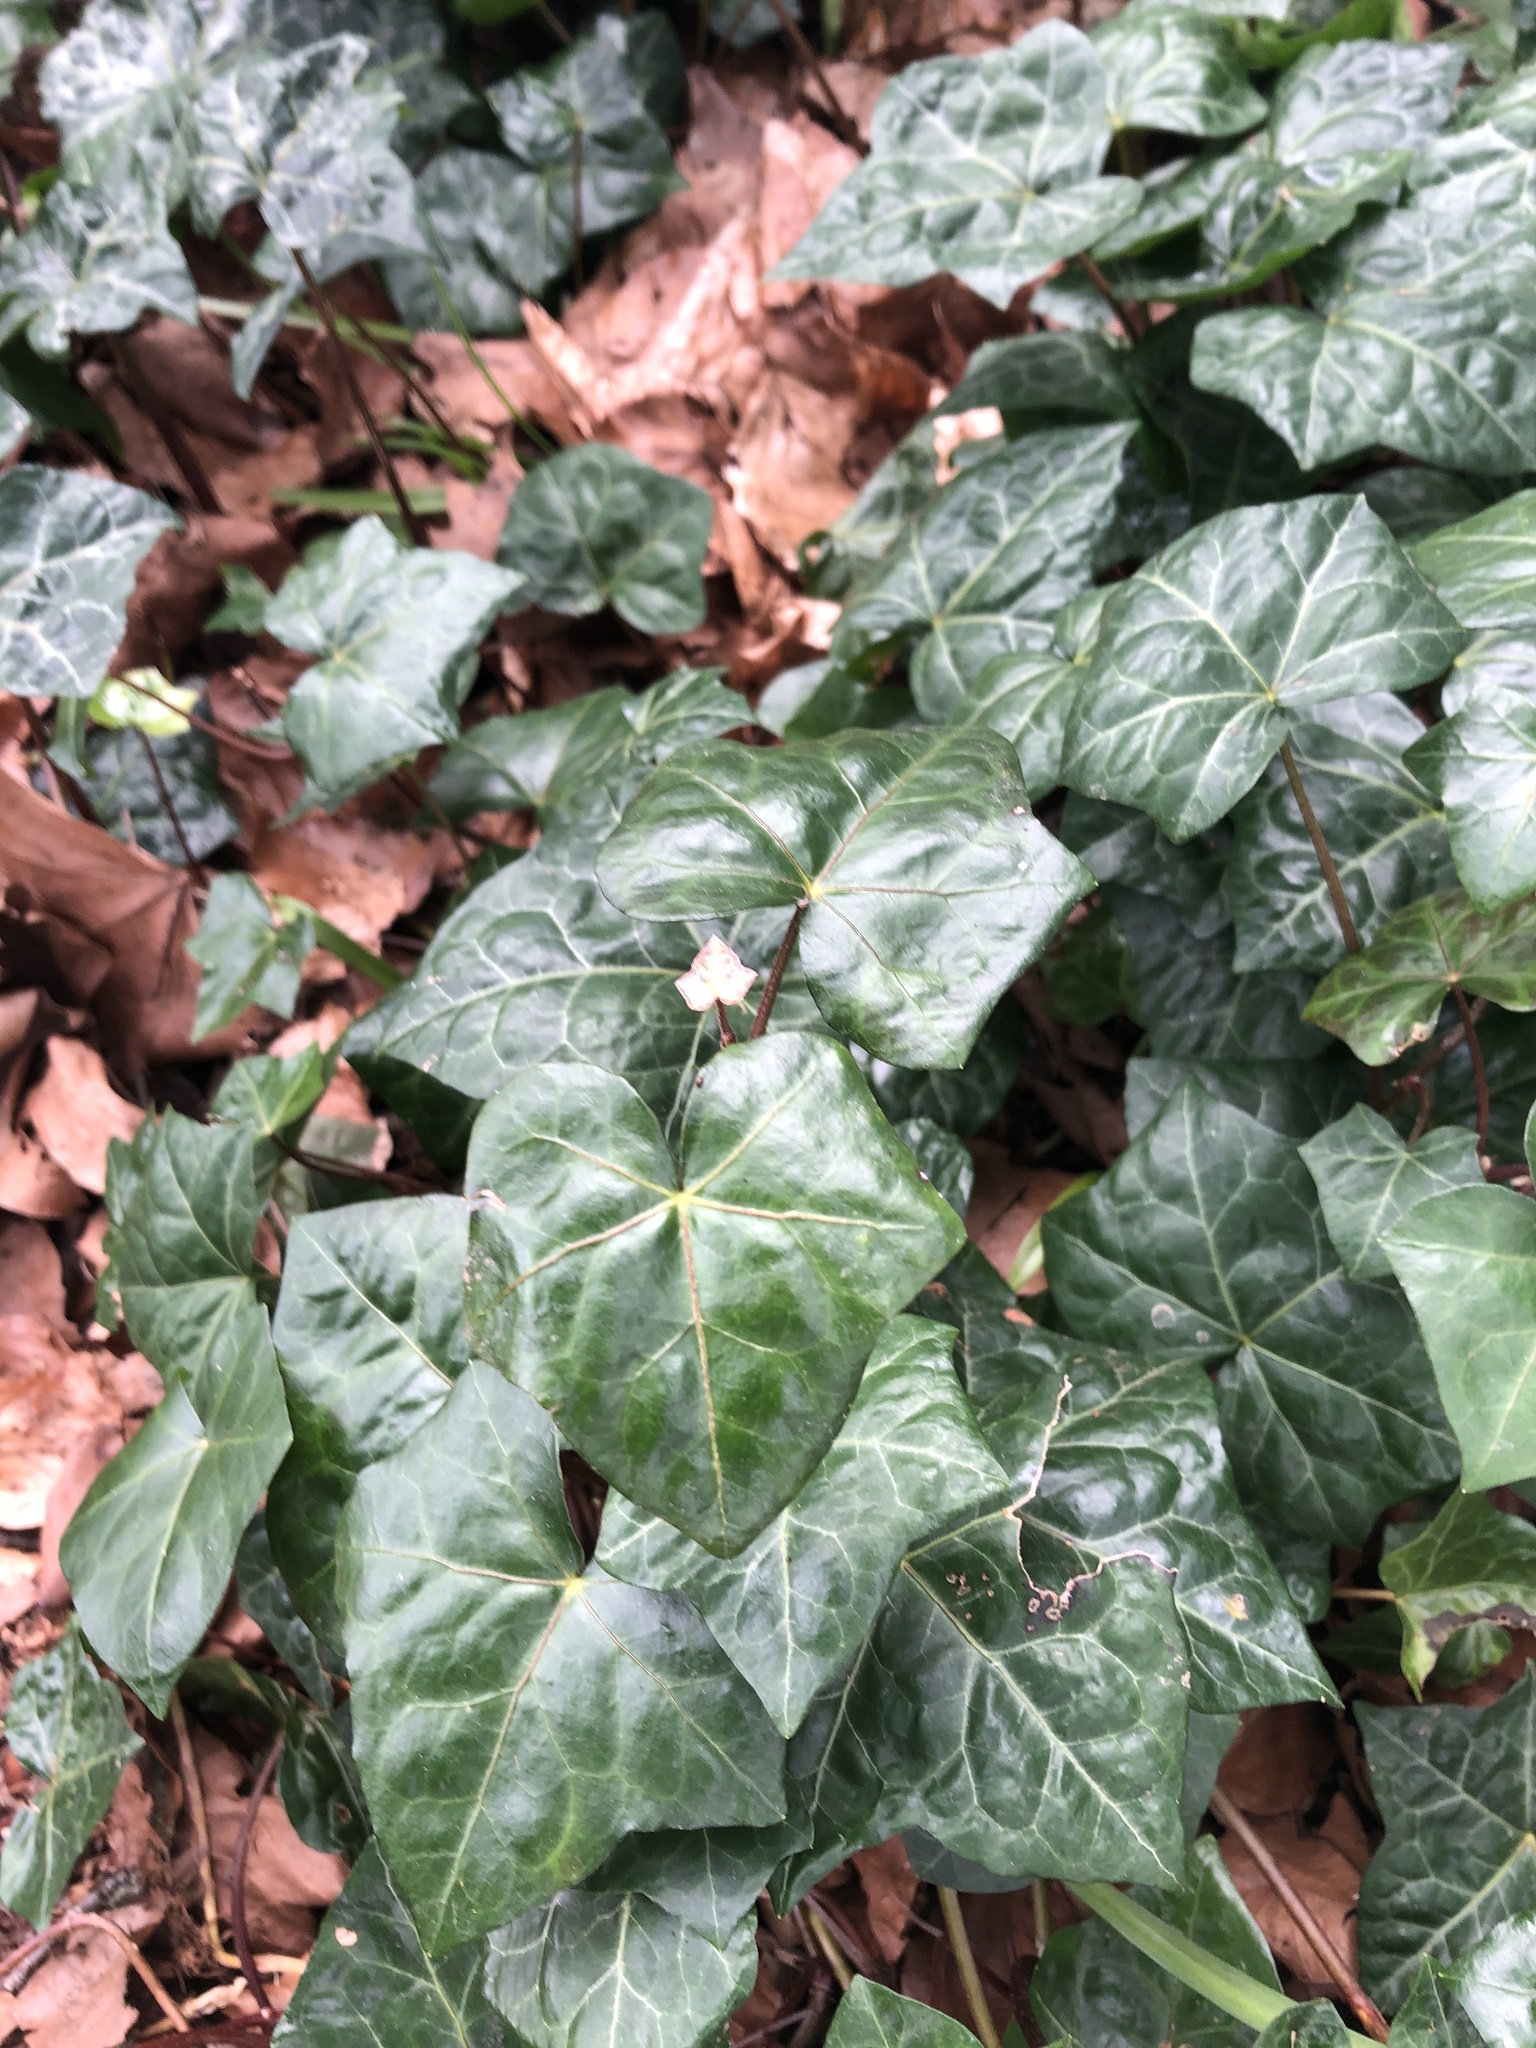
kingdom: Plantae
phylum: Tracheophyta
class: Magnoliopsida
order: Apiales
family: Araliaceae
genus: Hedera
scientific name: Hedera helix
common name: Ivy
